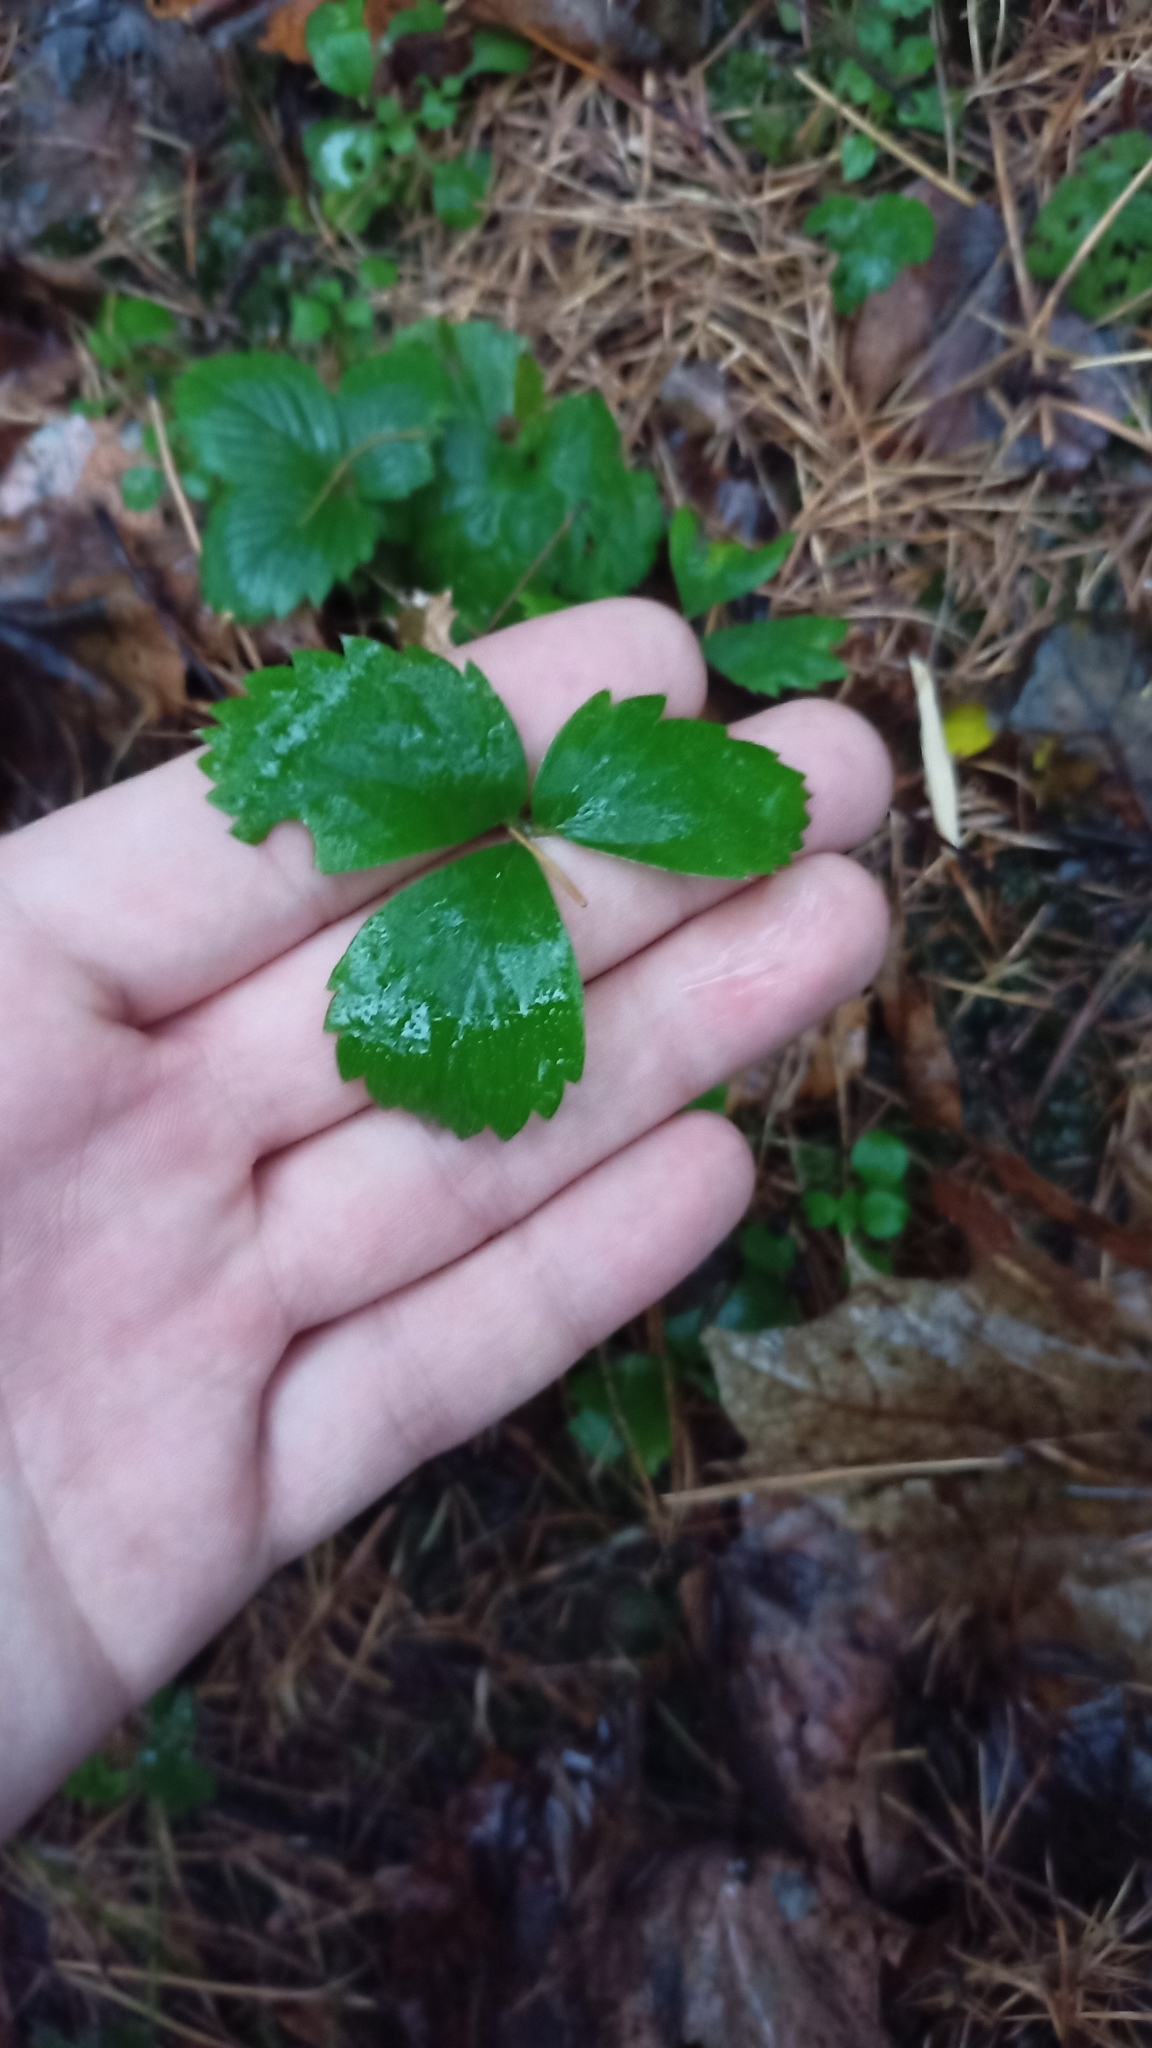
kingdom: Plantae
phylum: Tracheophyta
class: Magnoliopsida
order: Rosales
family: Rosaceae
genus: Fragaria
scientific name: Fragaria vesca
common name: Wild strawberry
